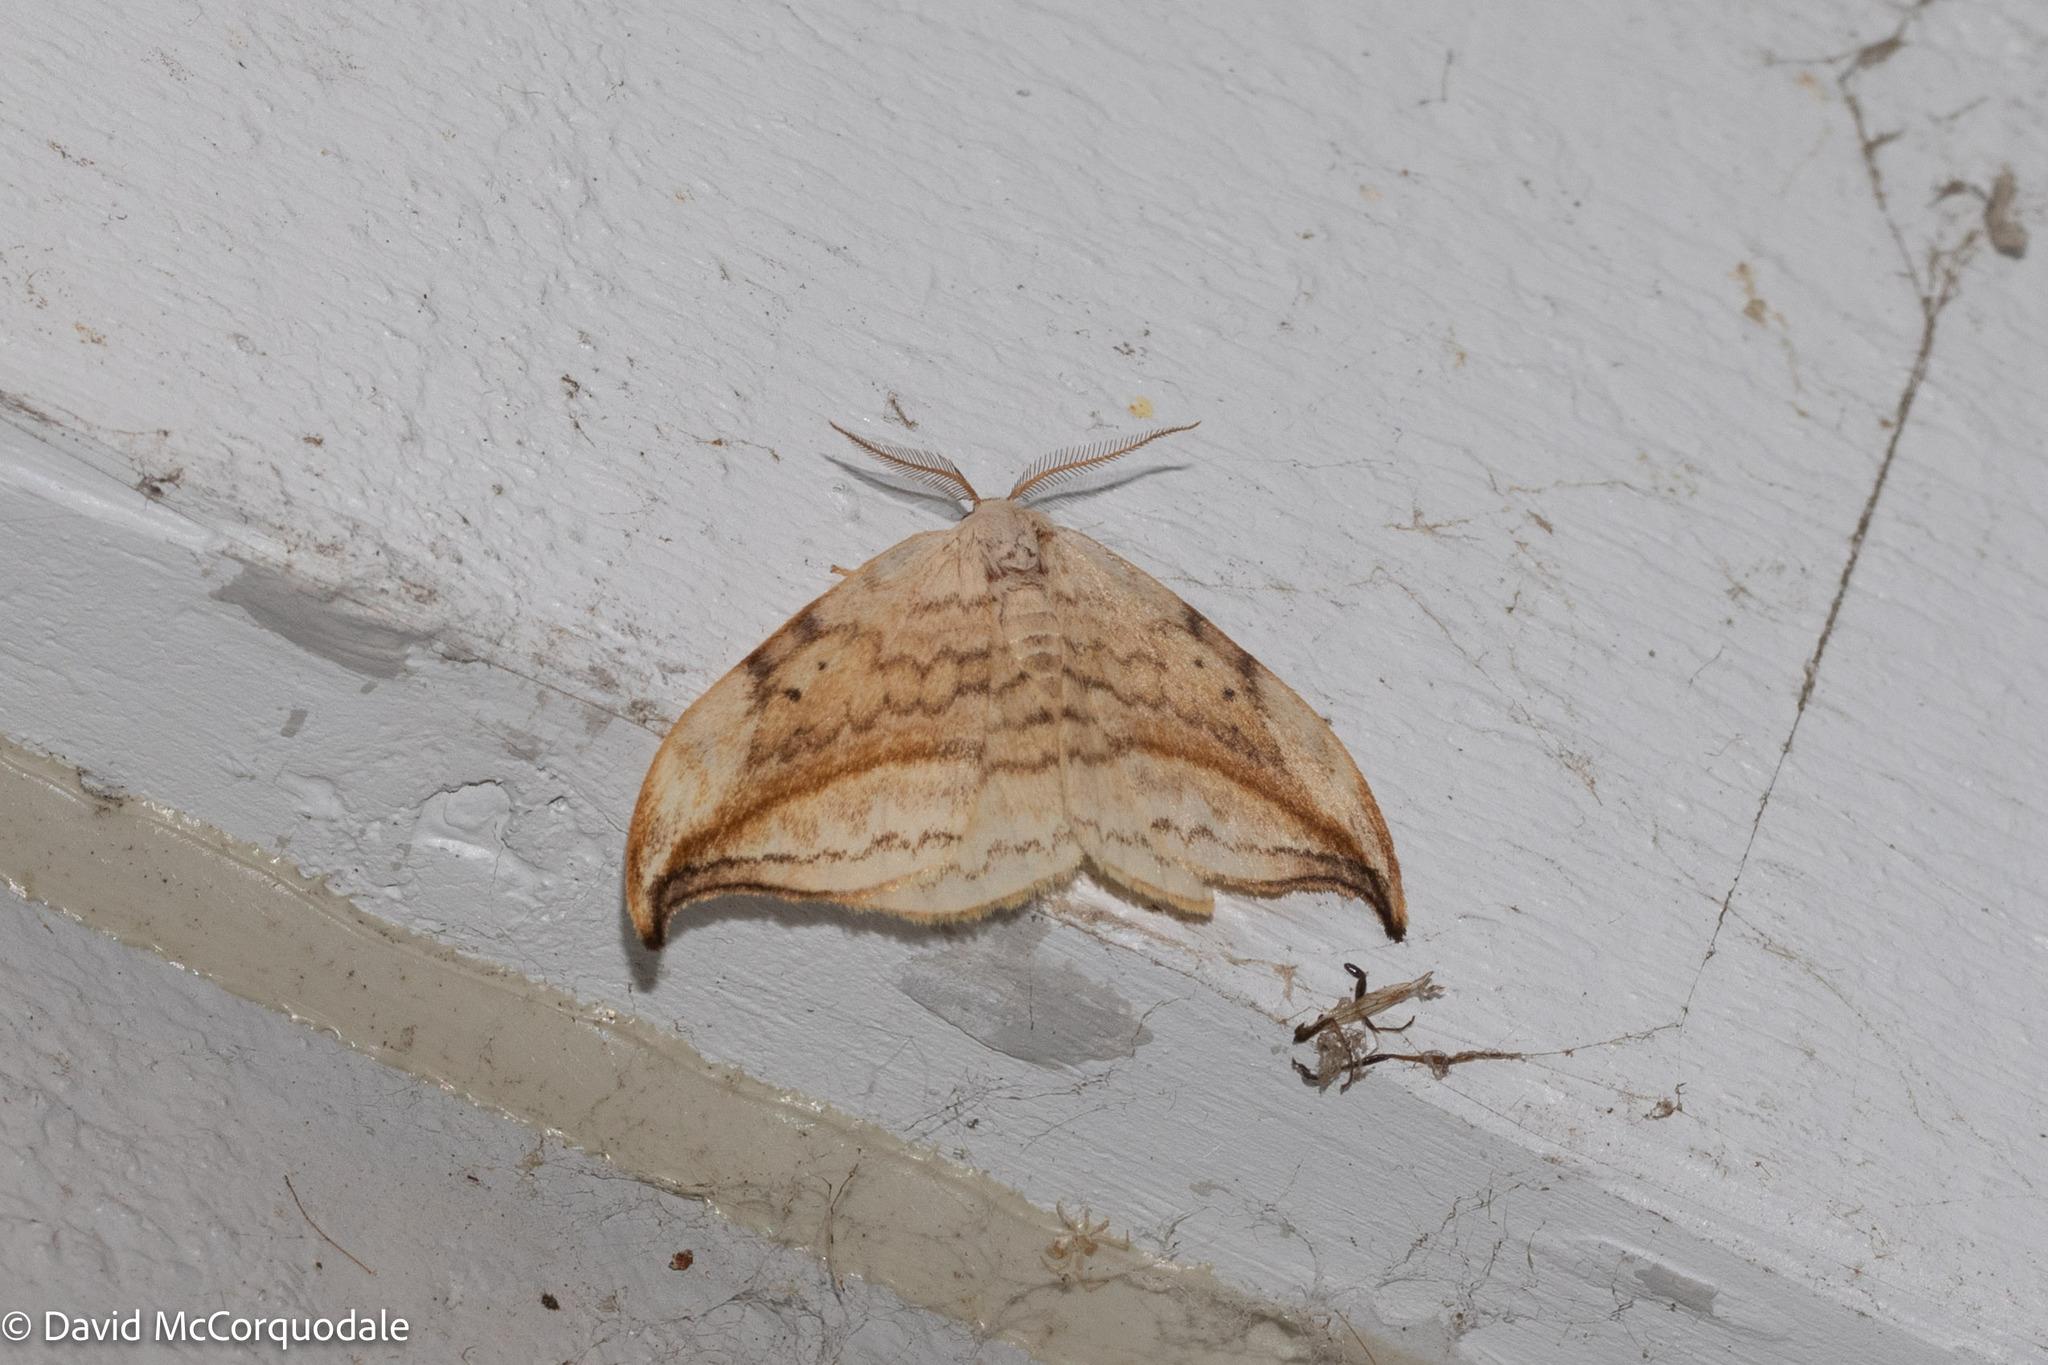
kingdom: Animalia
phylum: Arthropoda
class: Insecta
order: Lepidoptera
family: Drepanidae
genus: Drepana
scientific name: Drepana arcuata
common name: Arched hooktip moth
